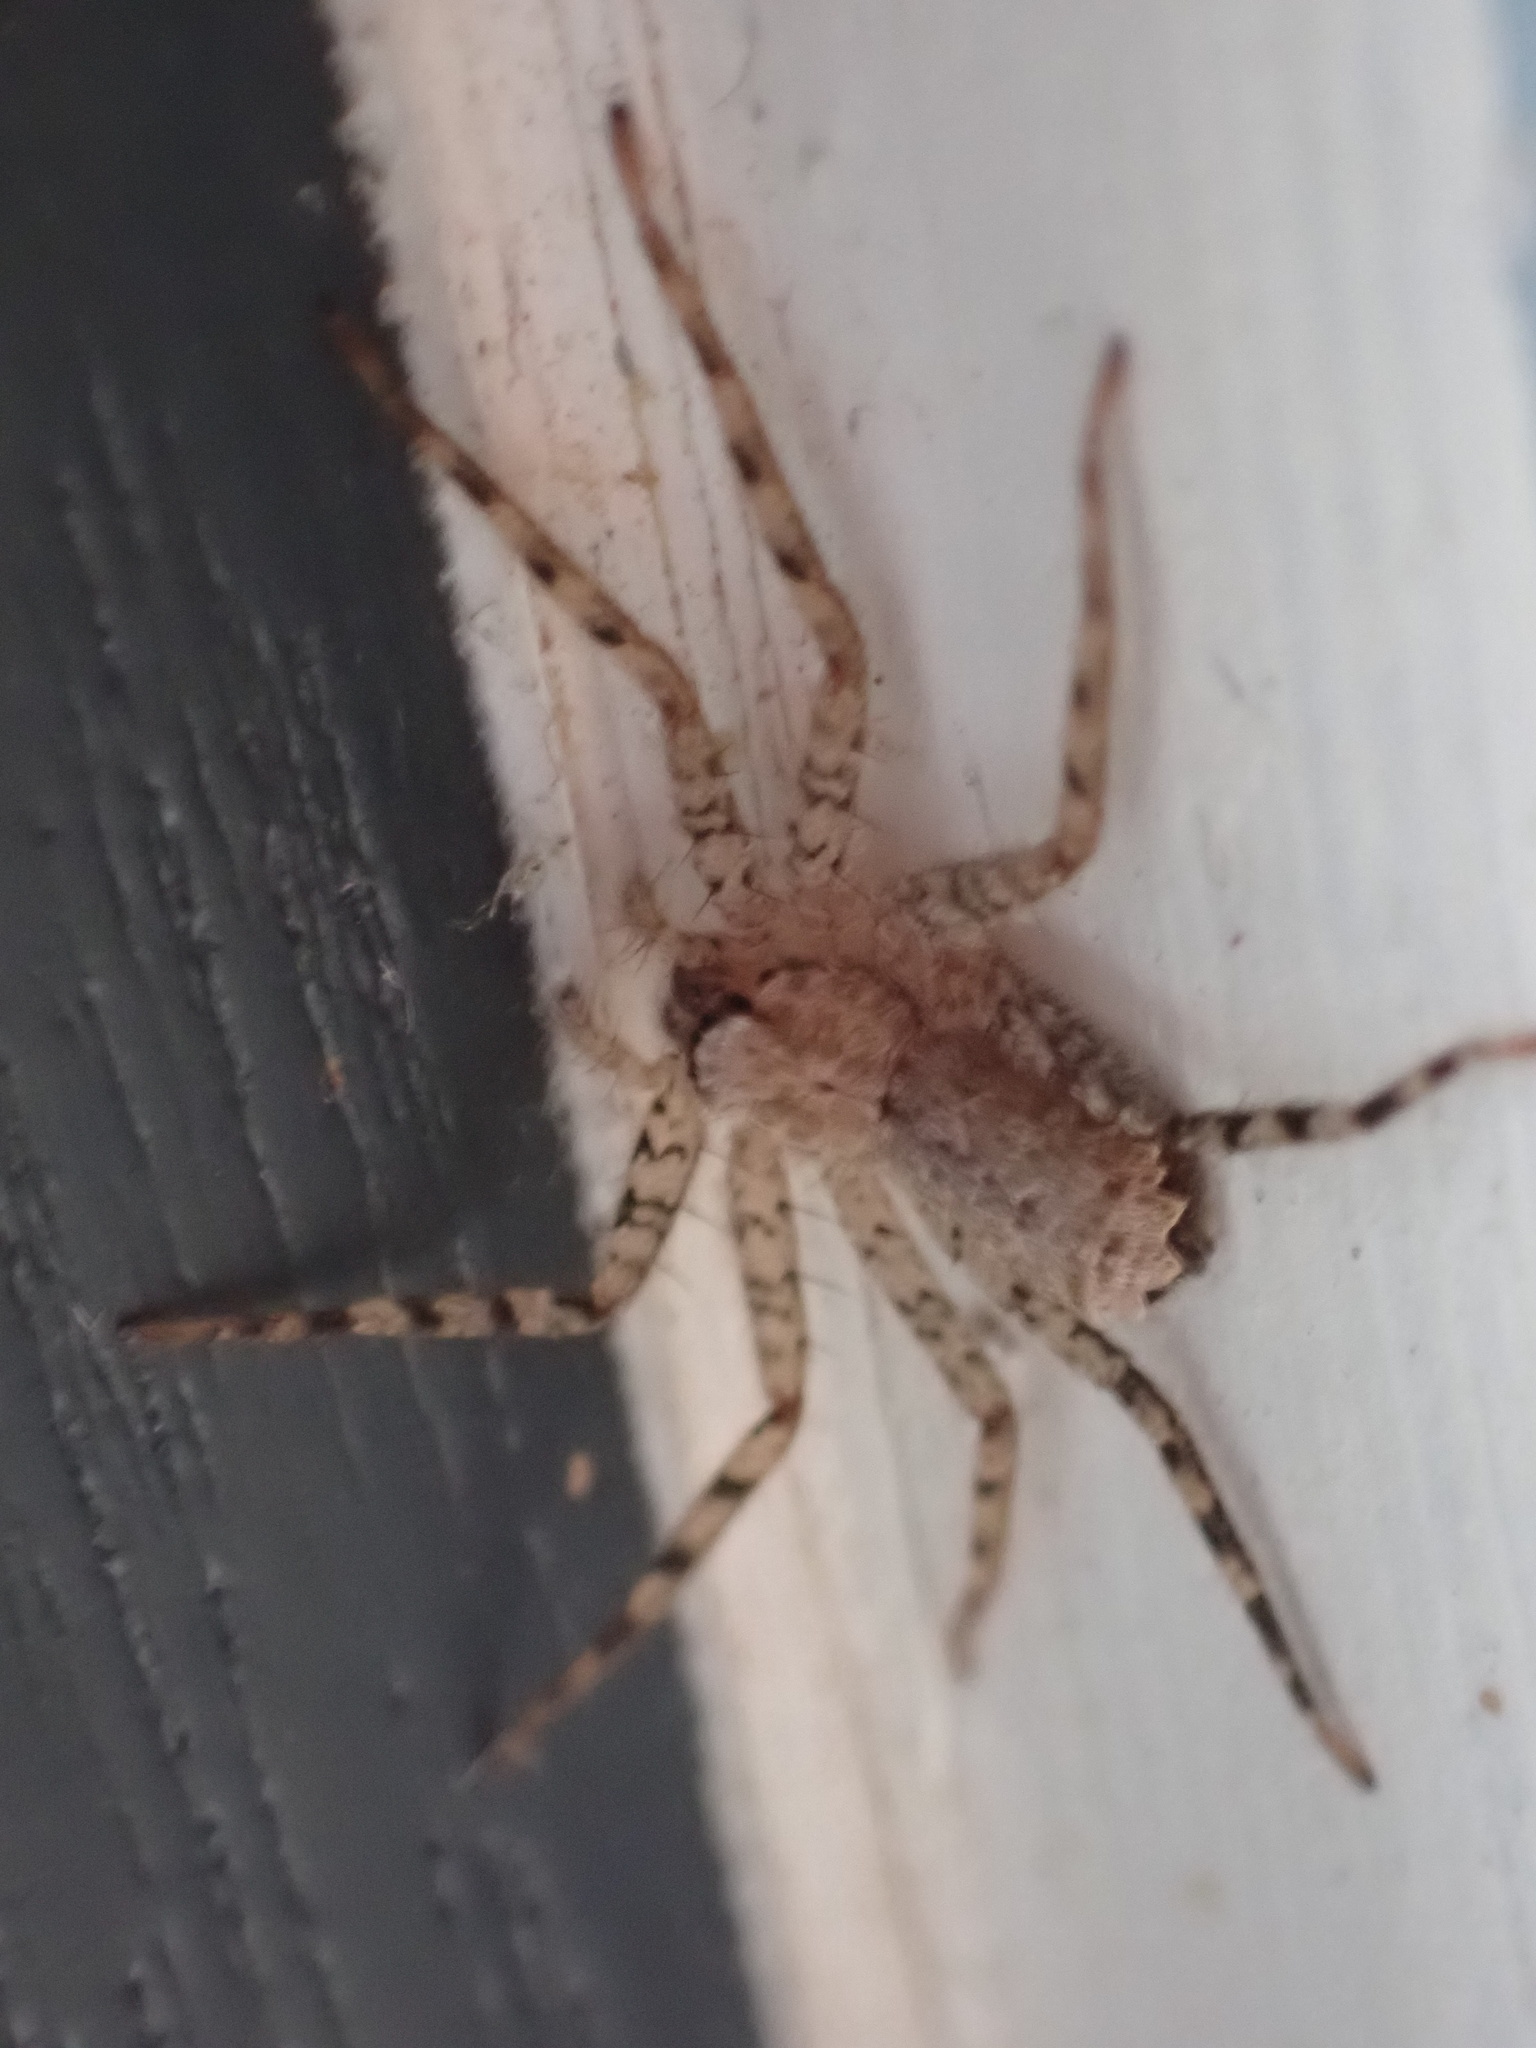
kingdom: Animalia
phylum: Arthropoda
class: Arachnida
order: Araneae
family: Selenopidae
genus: Selenops
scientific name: Selenops curazao
